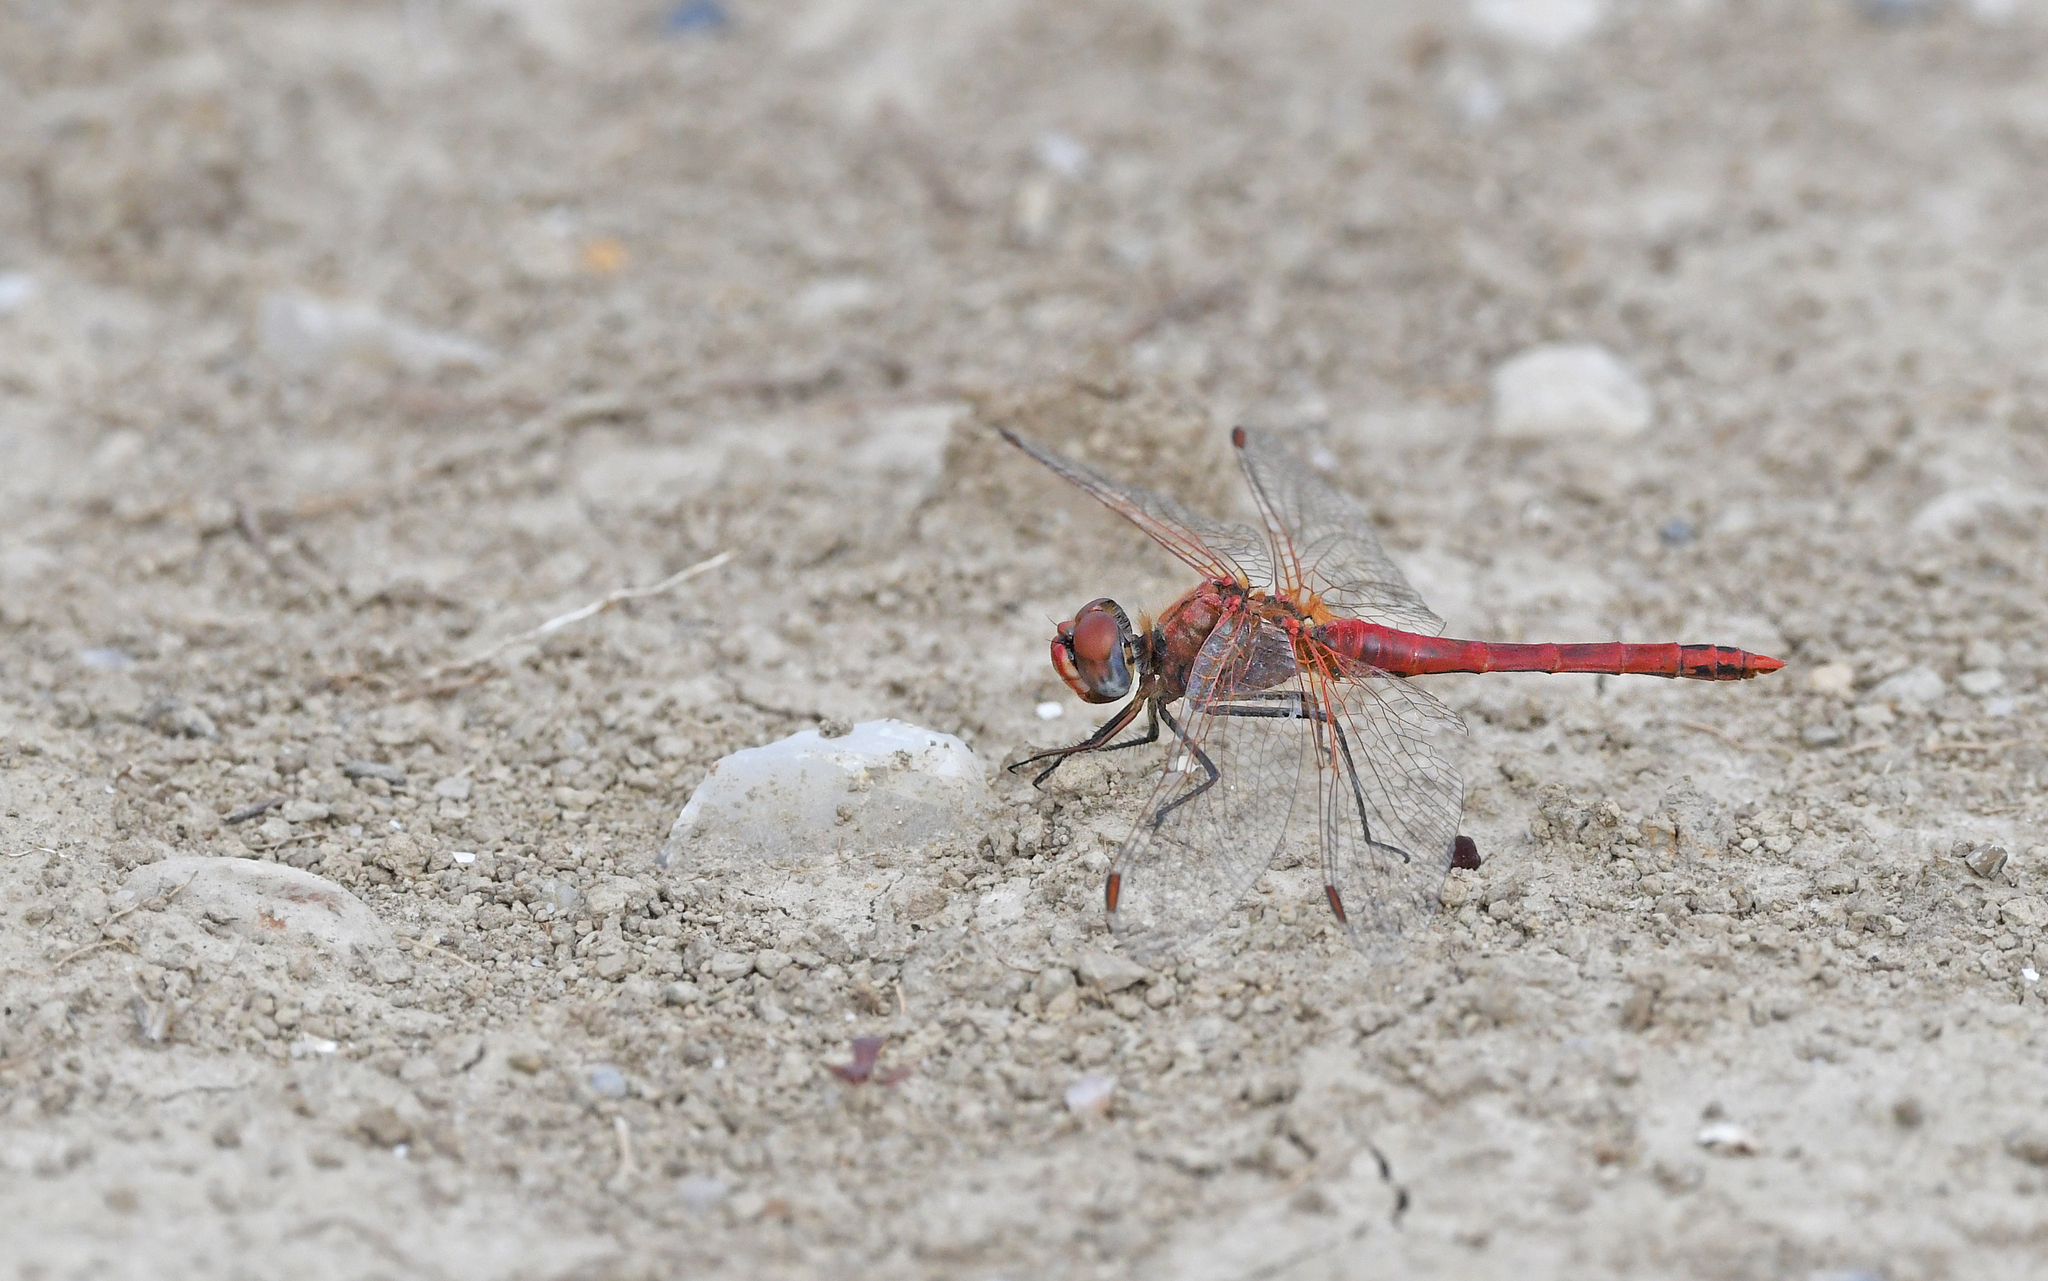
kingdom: Animalia
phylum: Arthropoda
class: Insecta
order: Odonata
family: Libellulidae
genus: Sympetrum
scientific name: Sympetrum fonscolombii
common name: Red-veined darter
